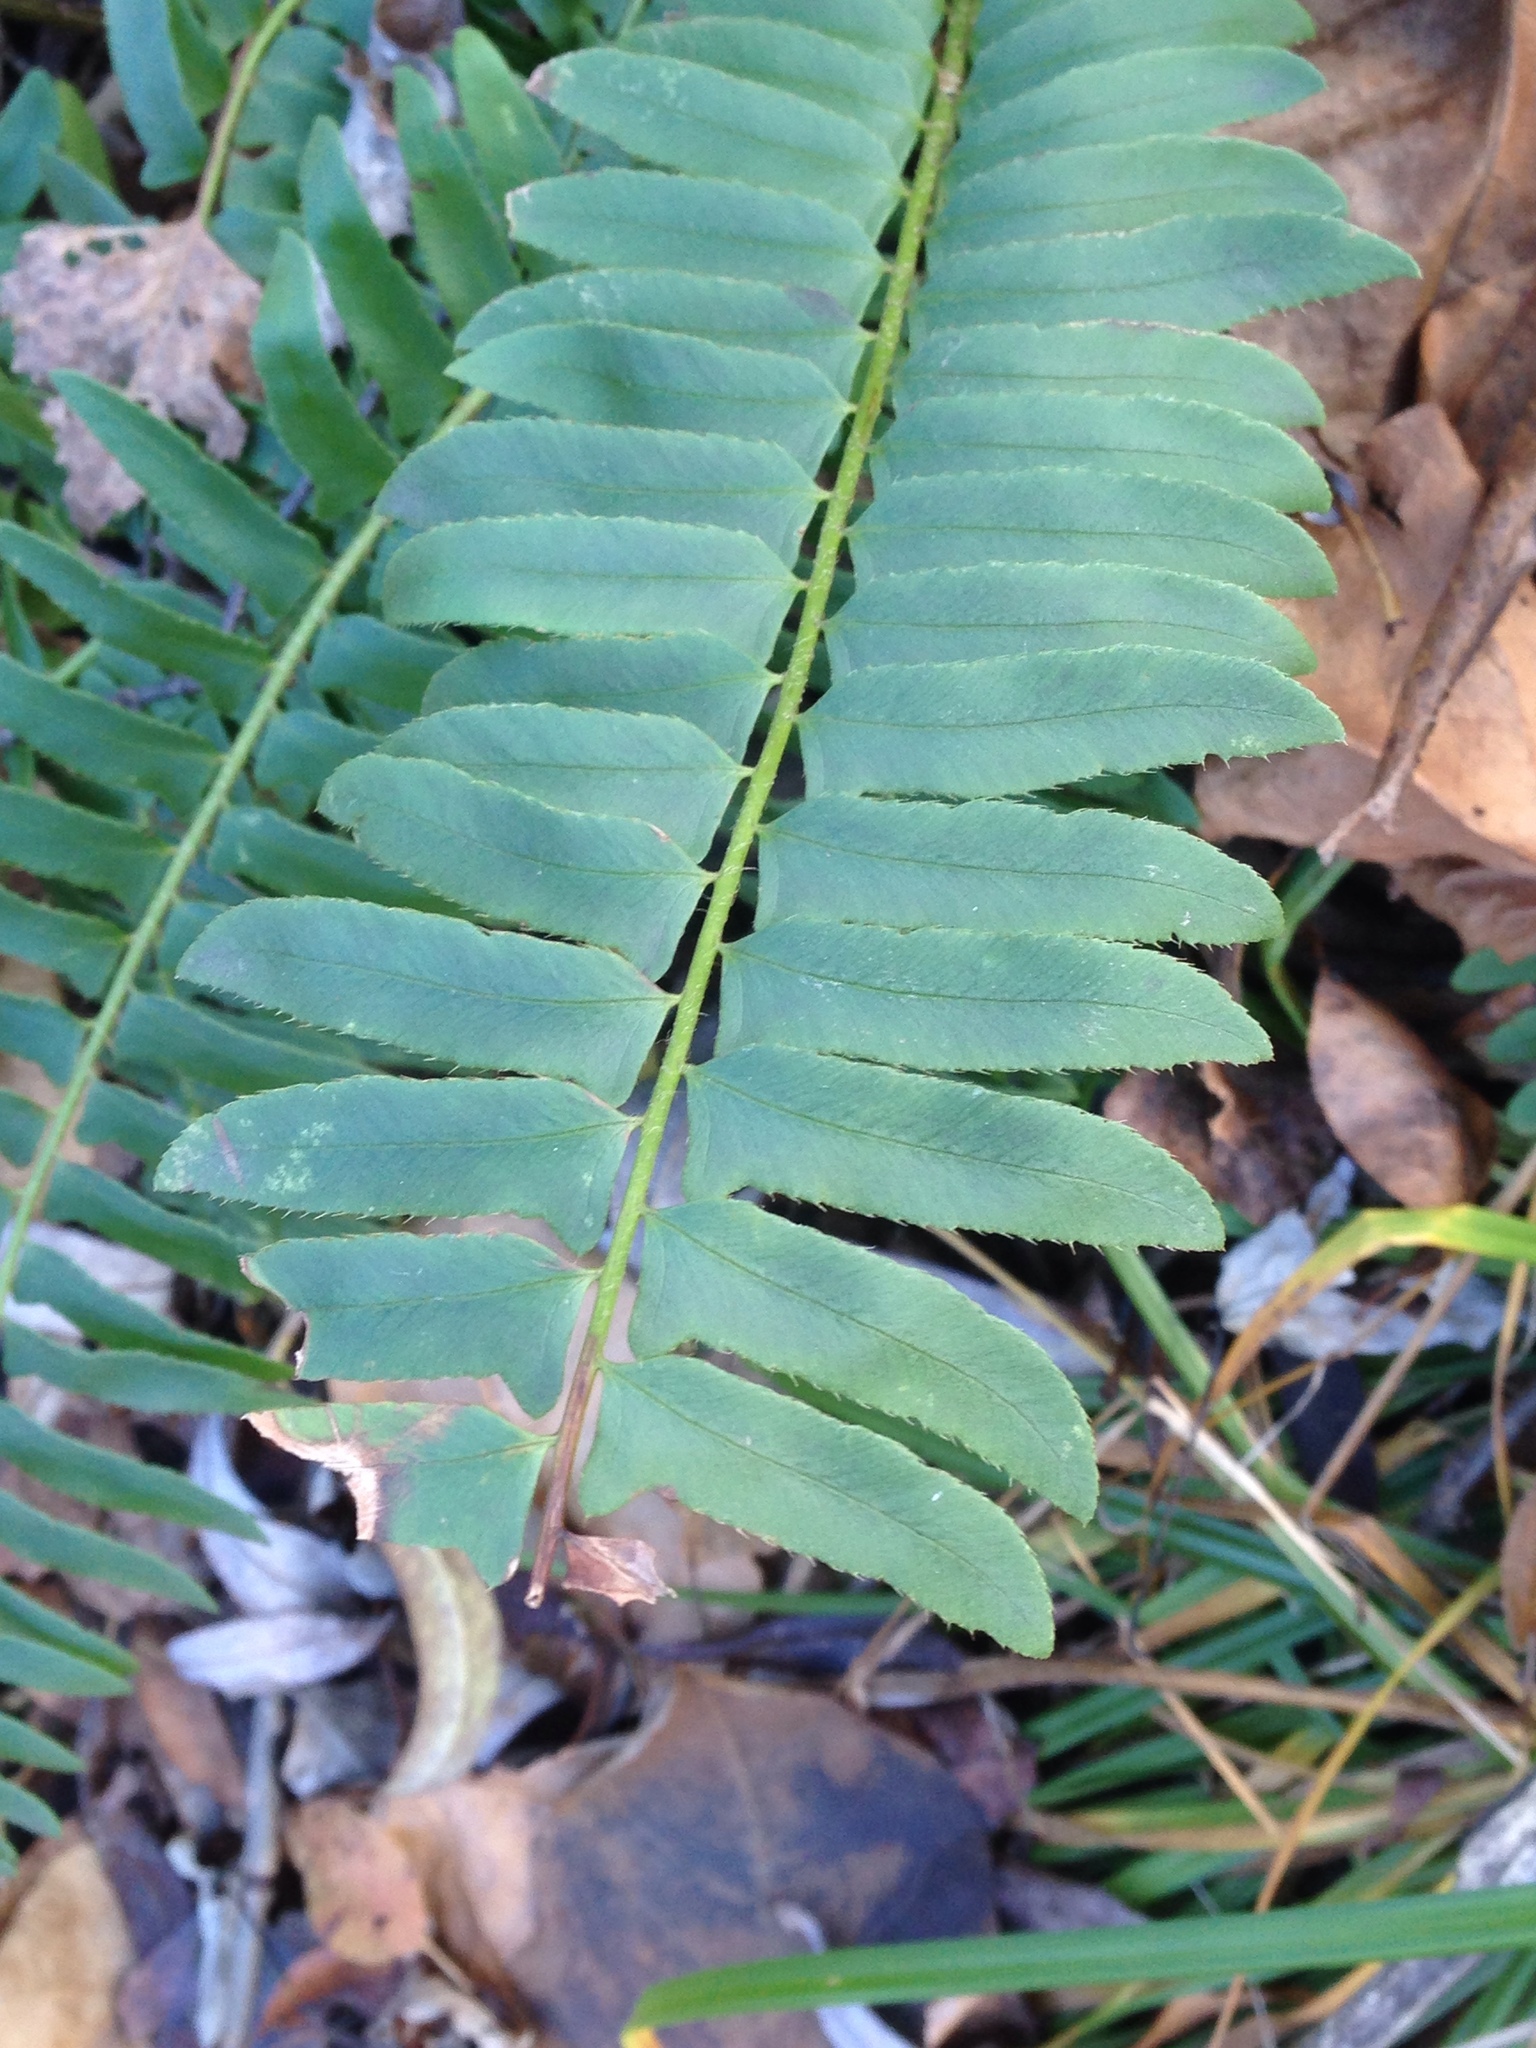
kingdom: Plantae
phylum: Tracheophyta
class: Polypodiopsida
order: Polypodiales
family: Dryopteridaceae
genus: Polystichum
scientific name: Polystichum acrostichoides
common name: Christmas fern
